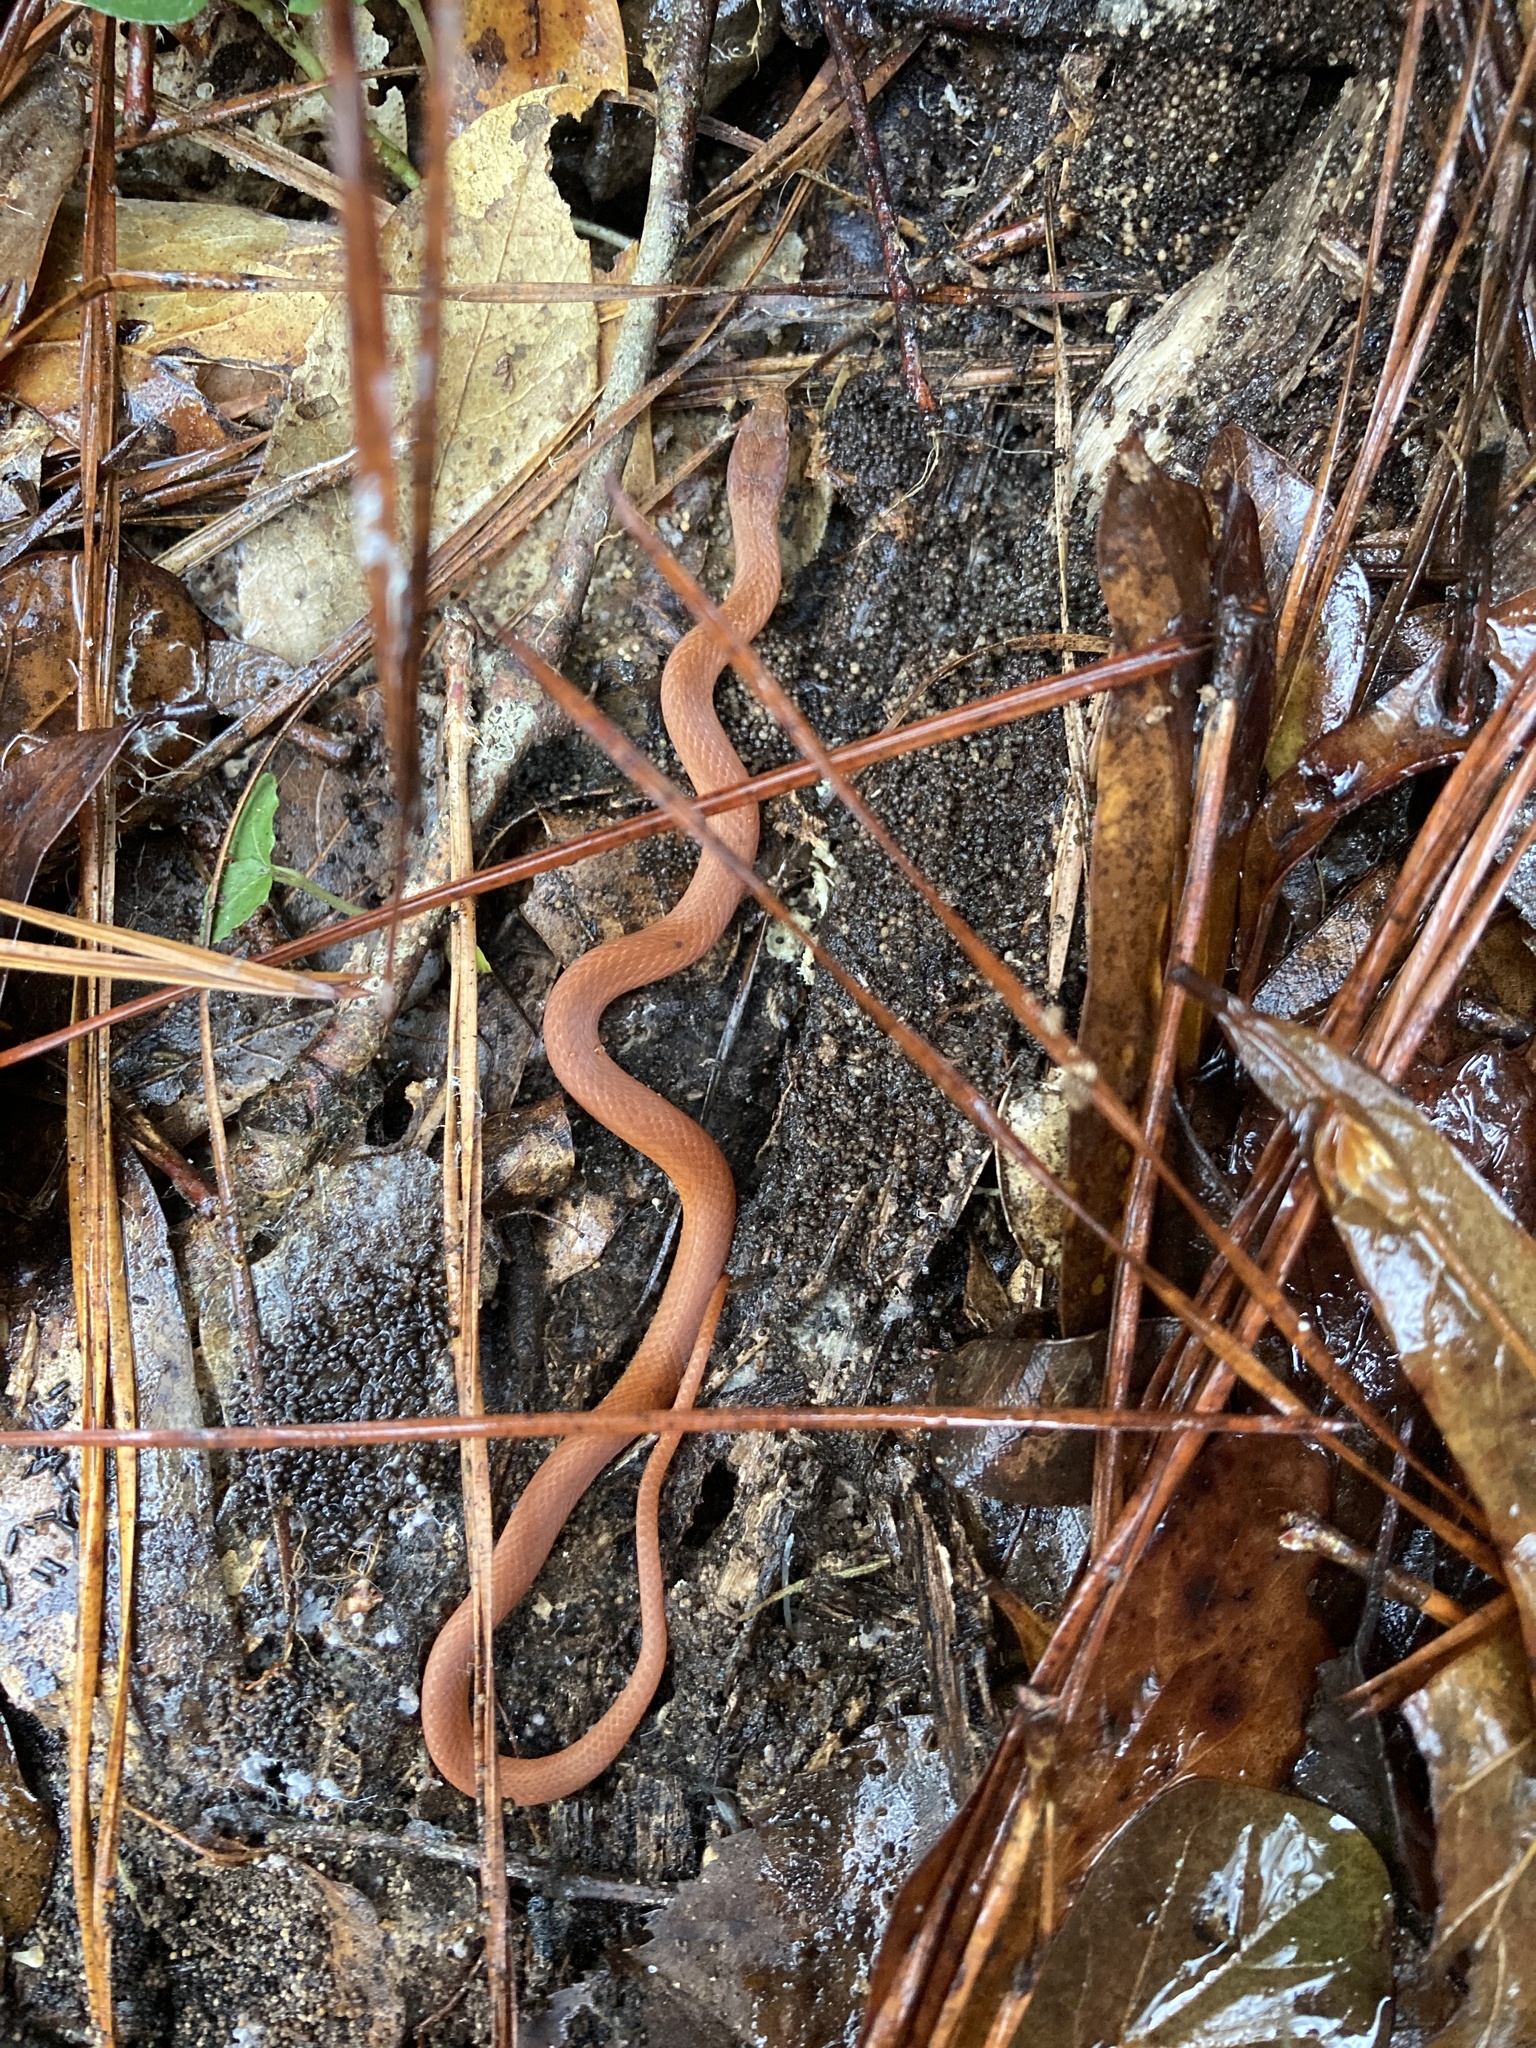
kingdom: Animalia
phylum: Chordata
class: Squamata
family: Colubridae
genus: Rhadinaea
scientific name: Rhadinaea flavilata
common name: Pine woods littersnake
